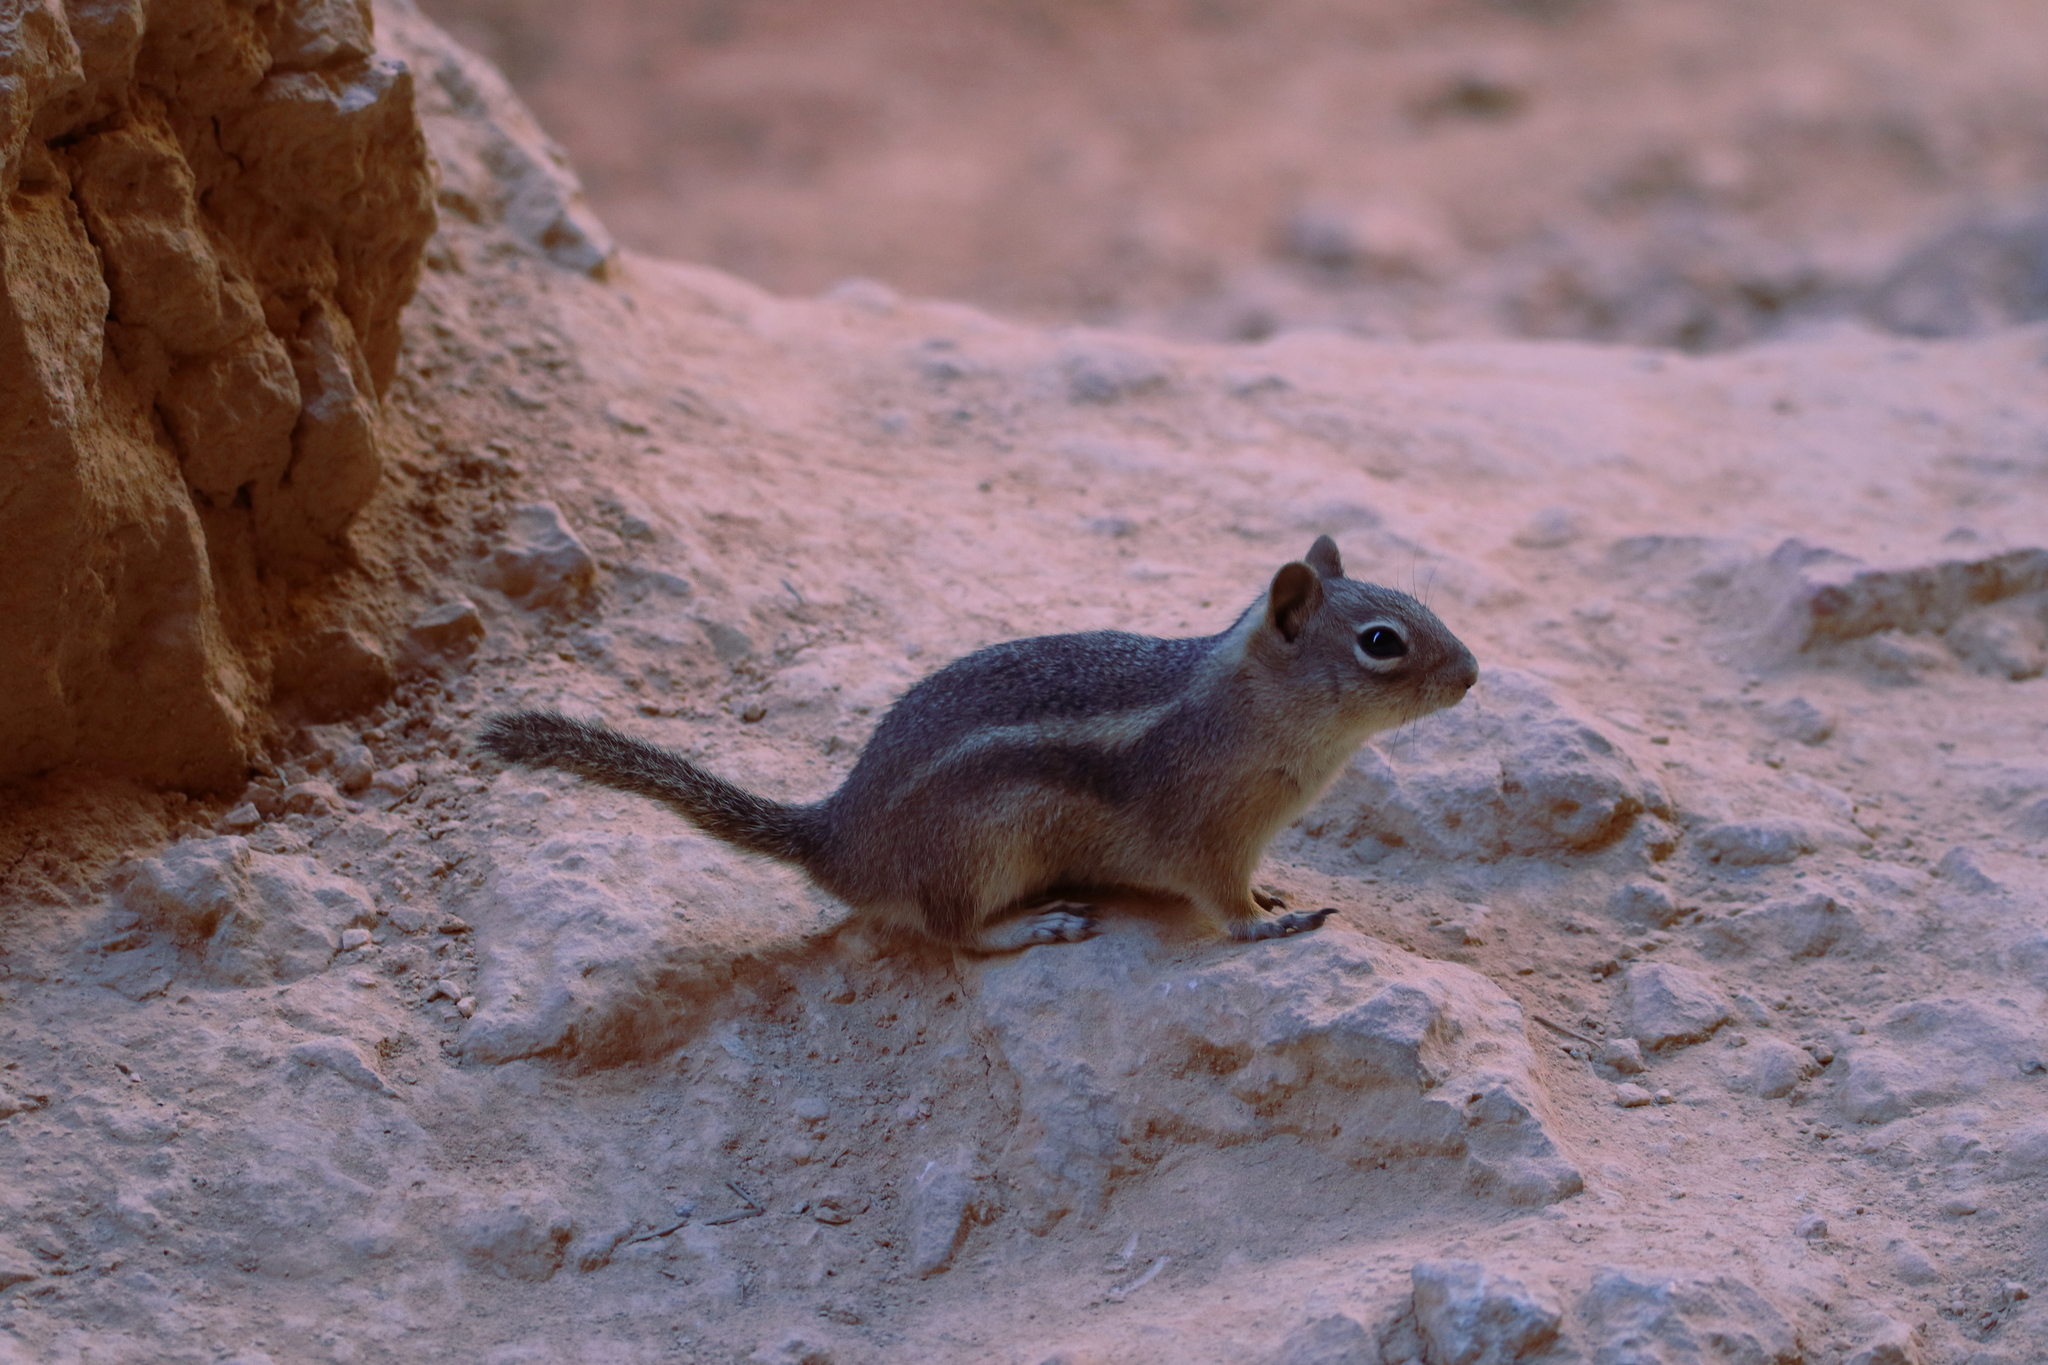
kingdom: Animalia
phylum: Chordata
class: Mammalia
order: Rodentia
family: Sciuridae
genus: Callospermophilus
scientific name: Callospermophilus lateralis
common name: Golden-mantled ground squirrel
